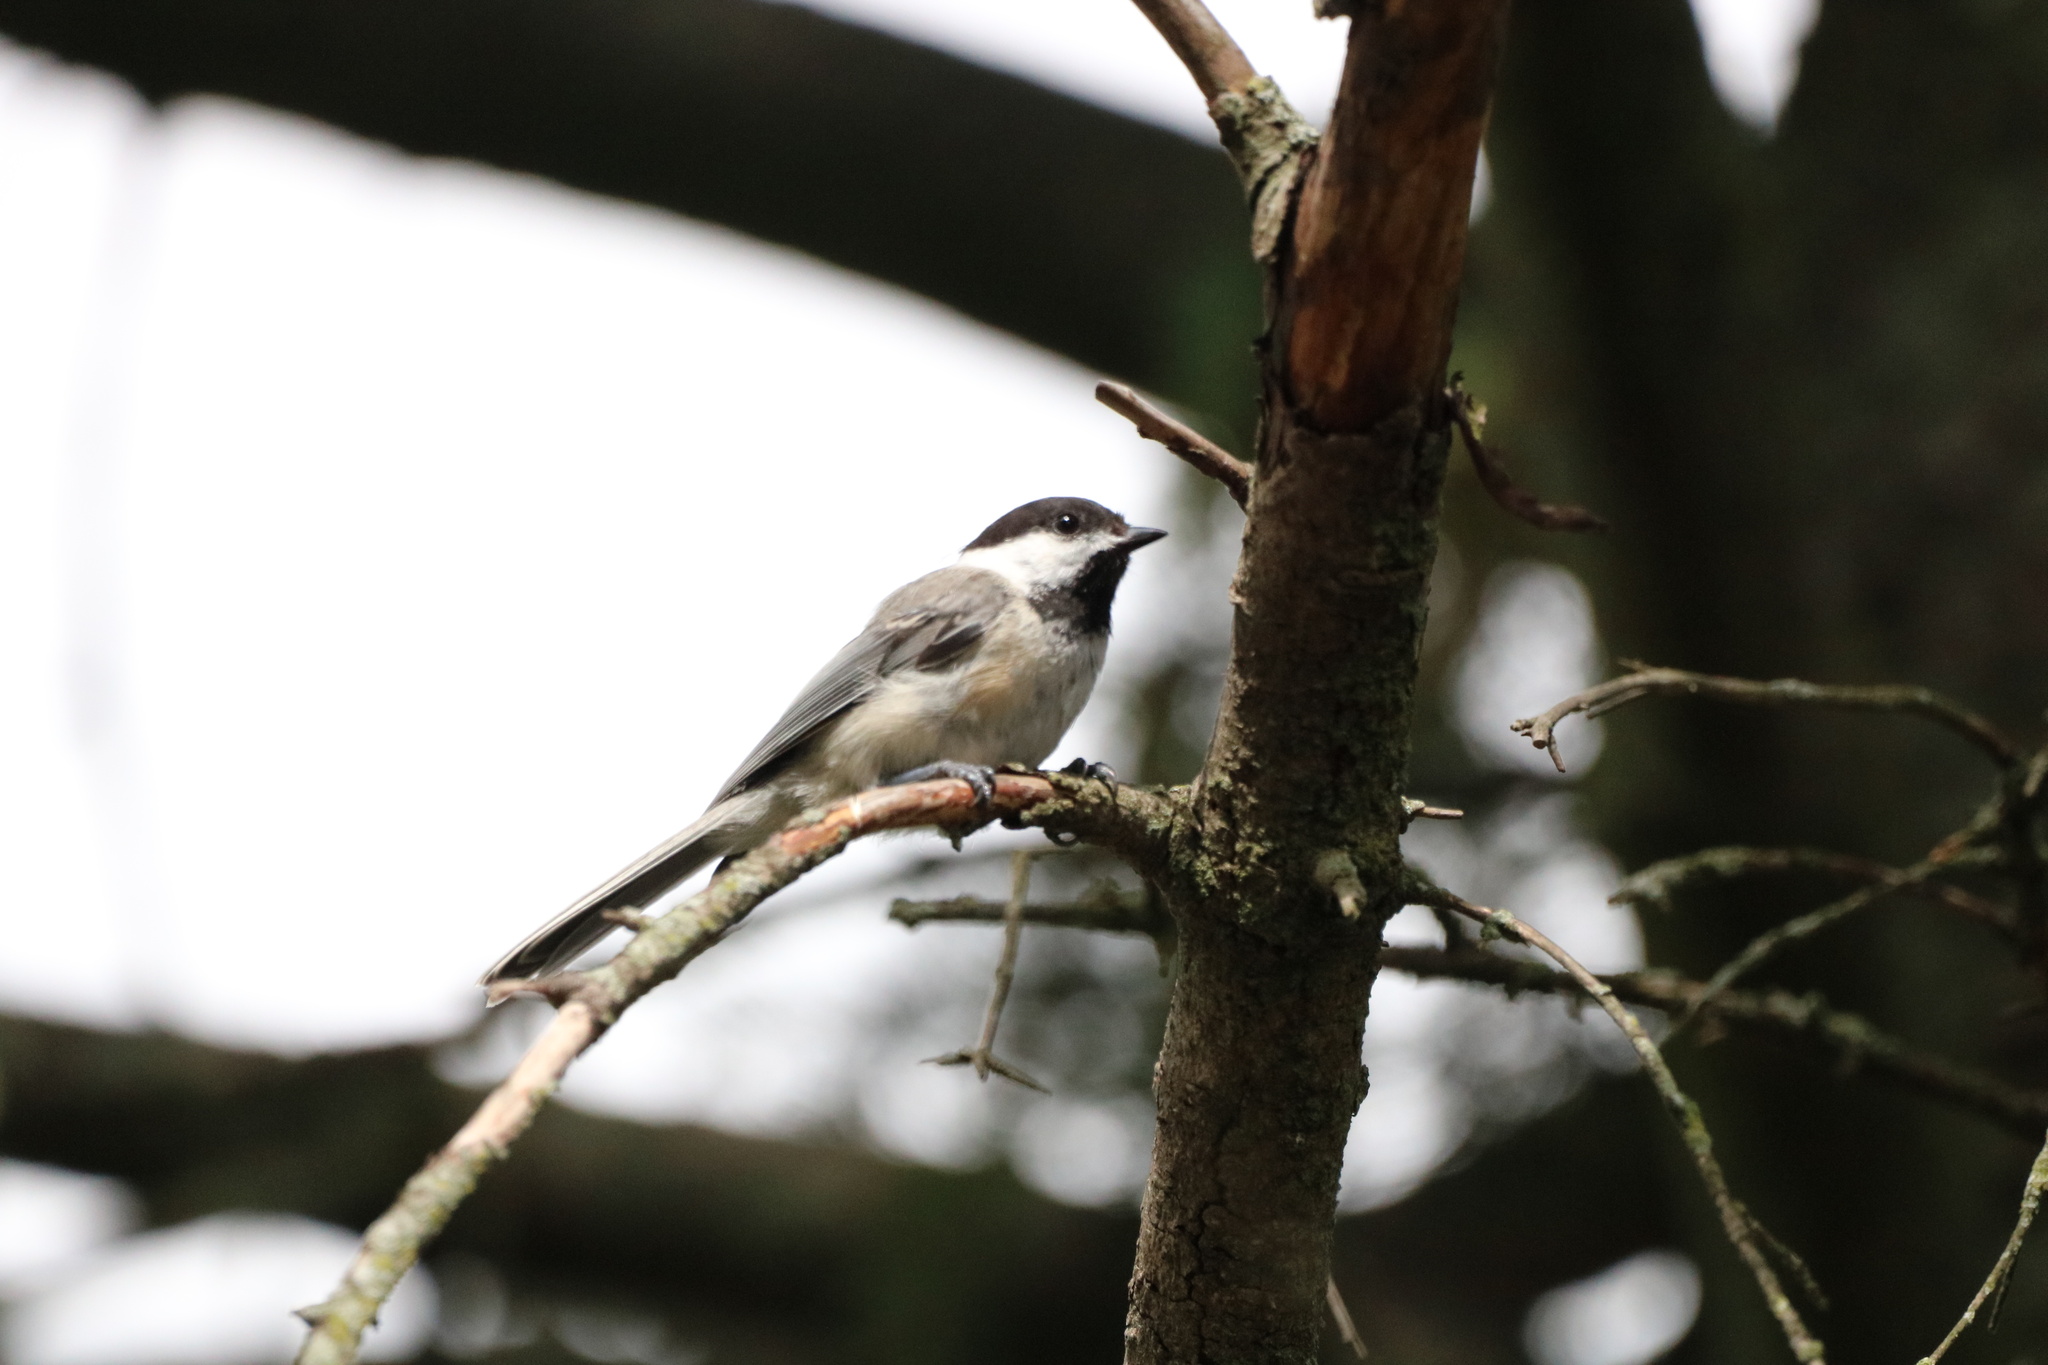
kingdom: Animalia
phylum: Chordata
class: Aves
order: Passeriformes
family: Paridae
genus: Poecile
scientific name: Poecile atricapillus
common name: Black-capped chickadee
